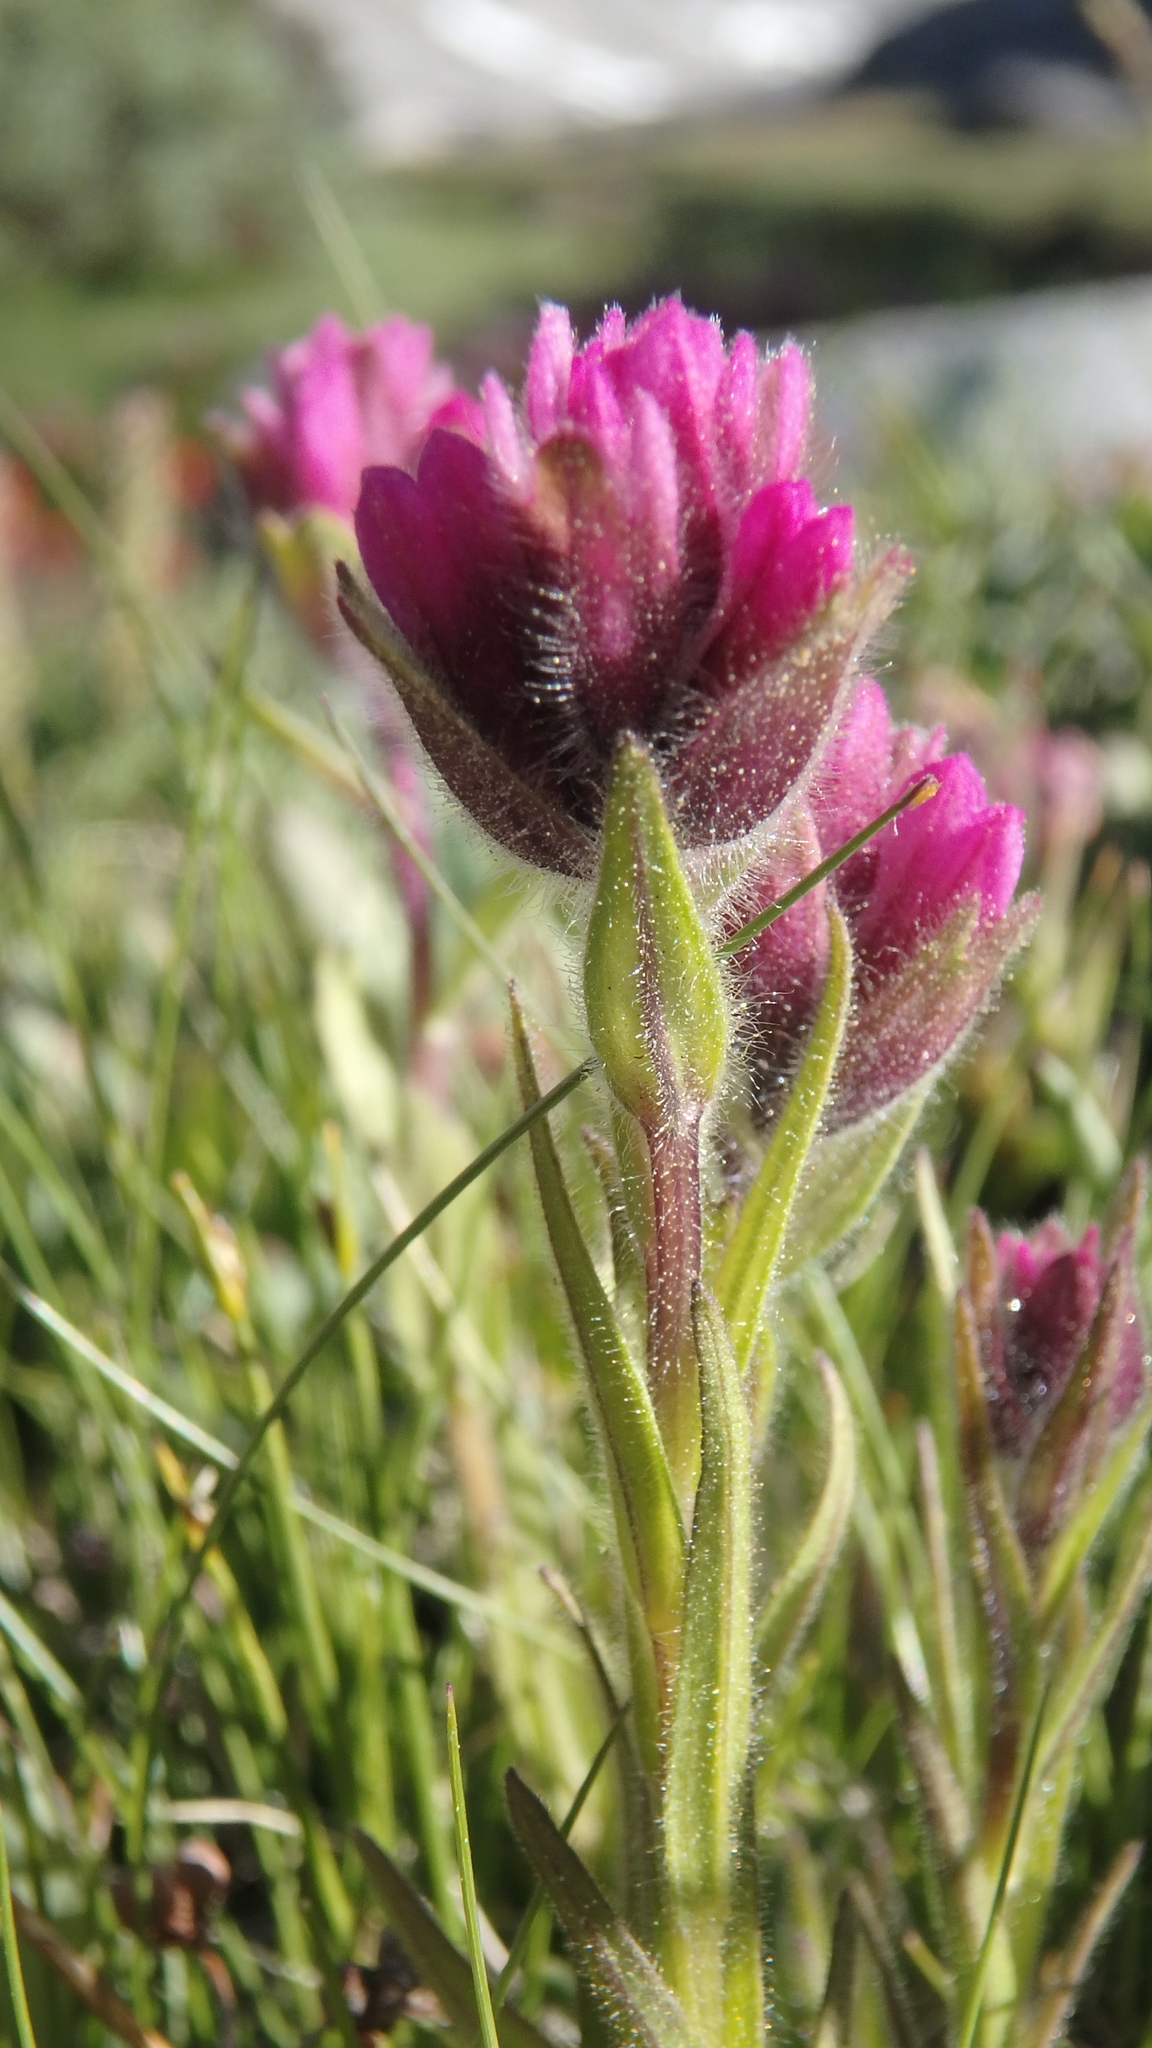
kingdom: Plantae
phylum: Tracheophyta
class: Magnoliopsida
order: Lamiales
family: Orobanchaceae
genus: Castilleja
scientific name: Castilleja lemmonii
